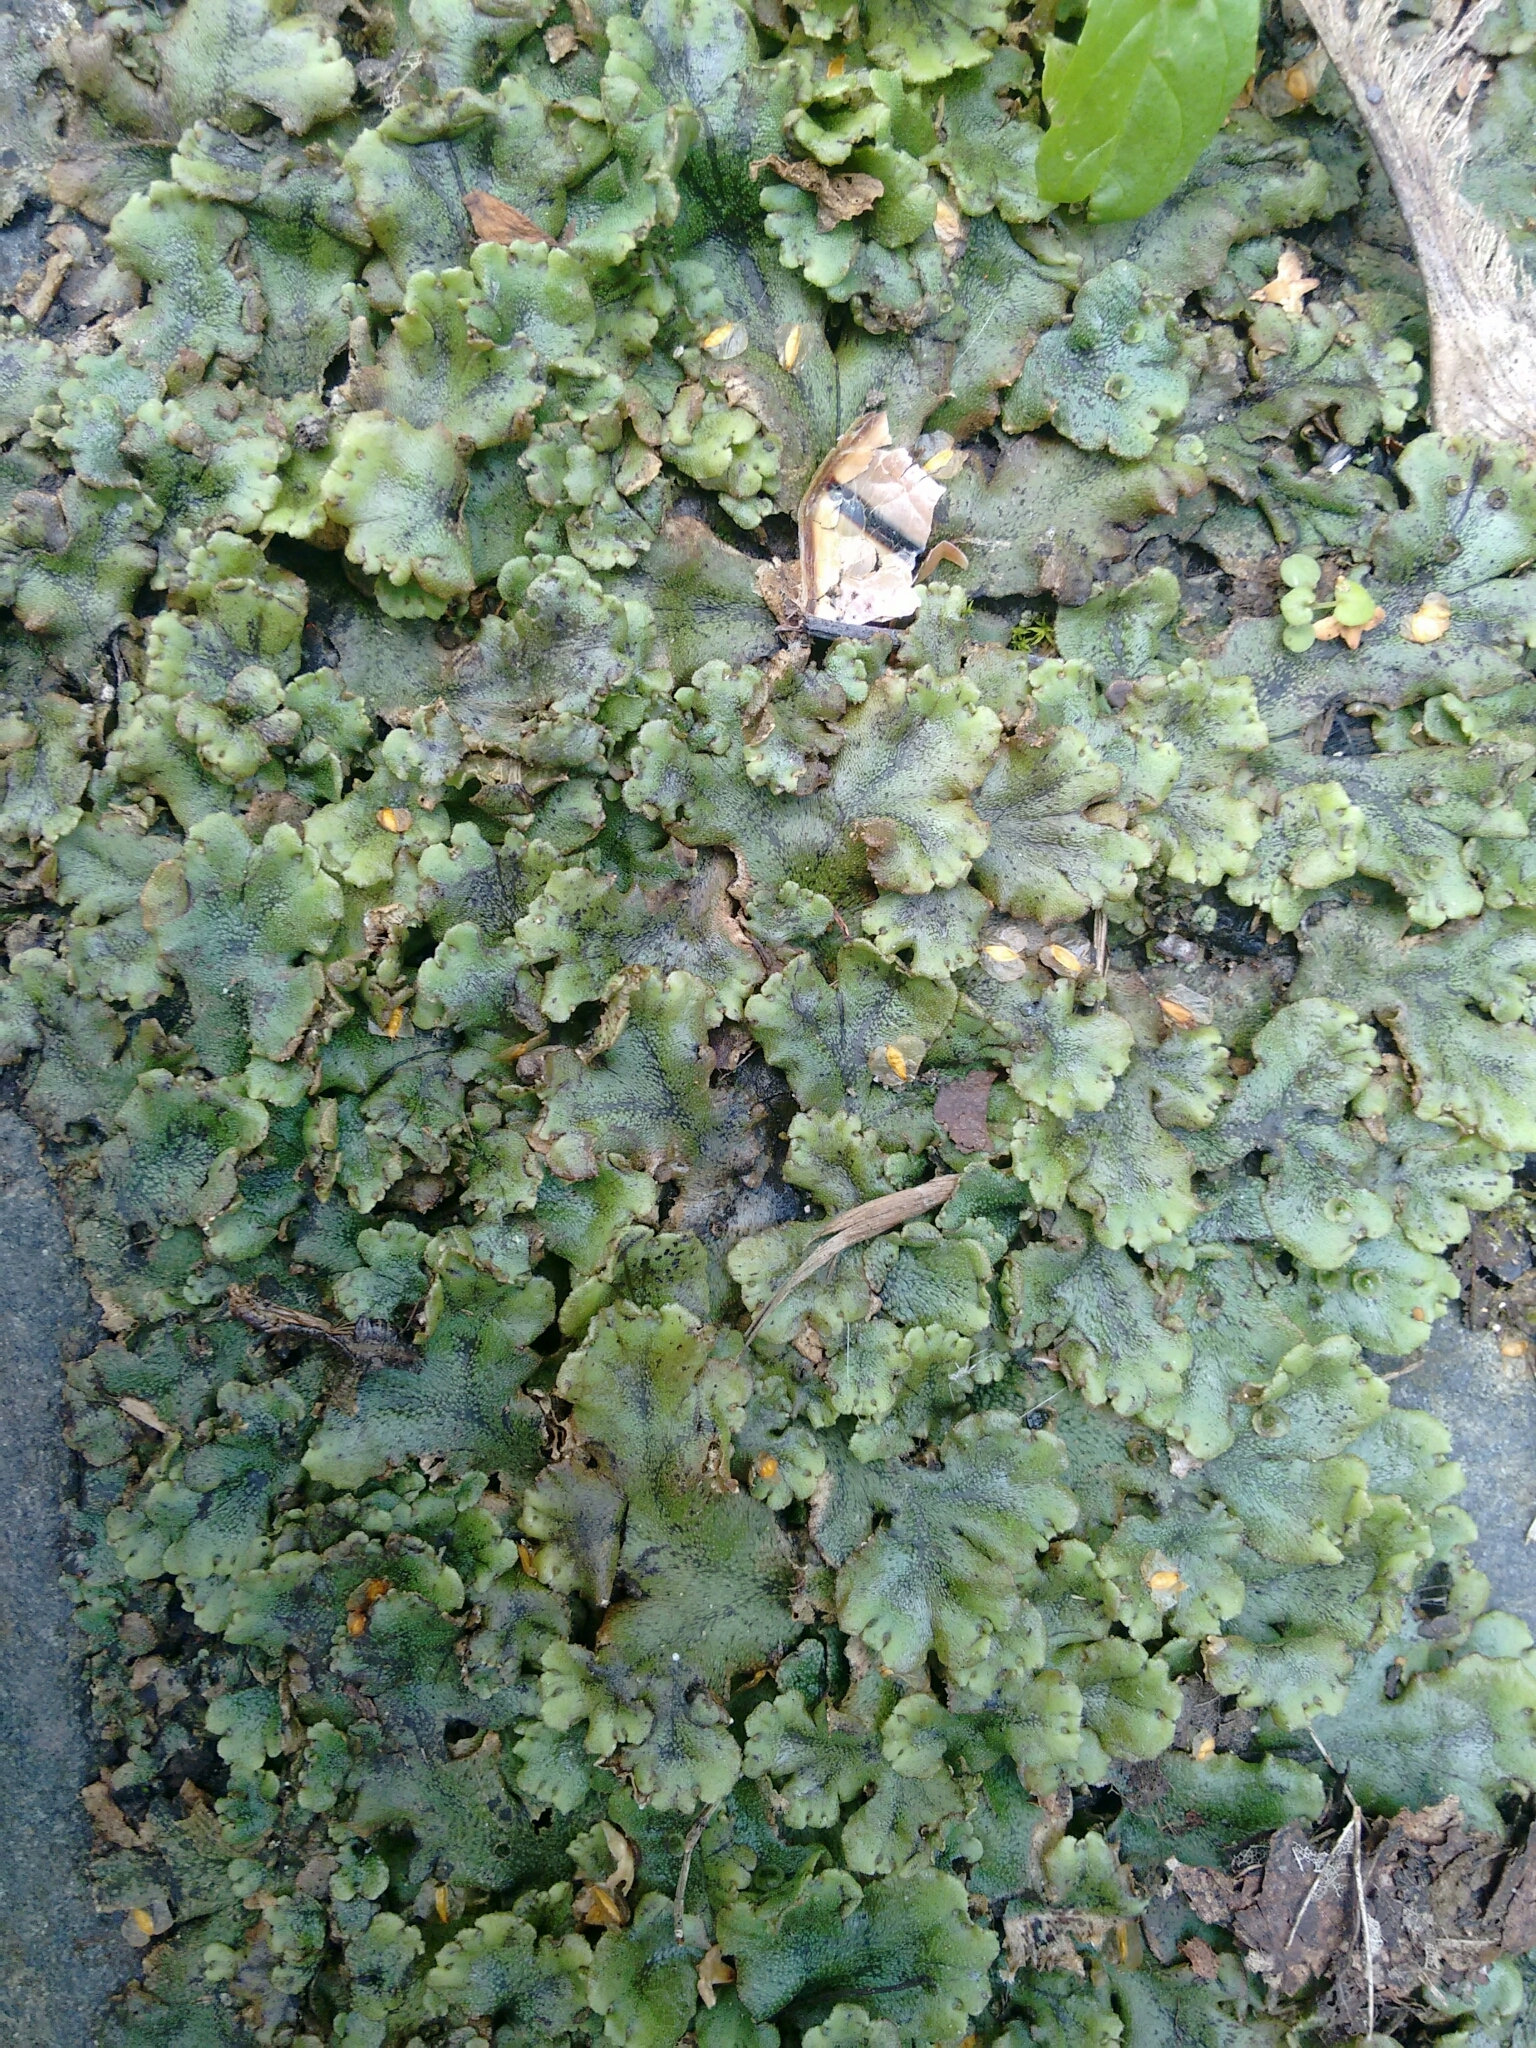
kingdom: Plantae
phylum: Marchantiophyta
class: Marchantiopsida
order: Marchantiales
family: Marchantiaceae
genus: Marchantia
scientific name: Marchantia polymorpha
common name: Common liverwort
